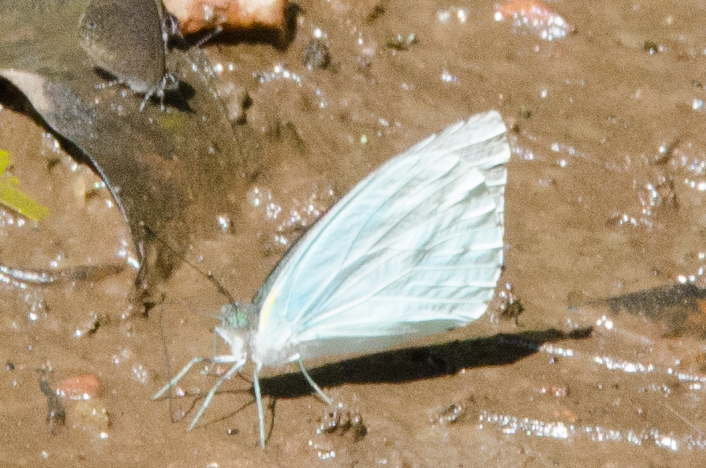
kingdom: Animalia
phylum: Arthropoda
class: Insecta
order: Lepidoptera
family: Pieridae
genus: Nepheronia
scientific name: Nepheronia thalassina
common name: Cambridge vagrant
